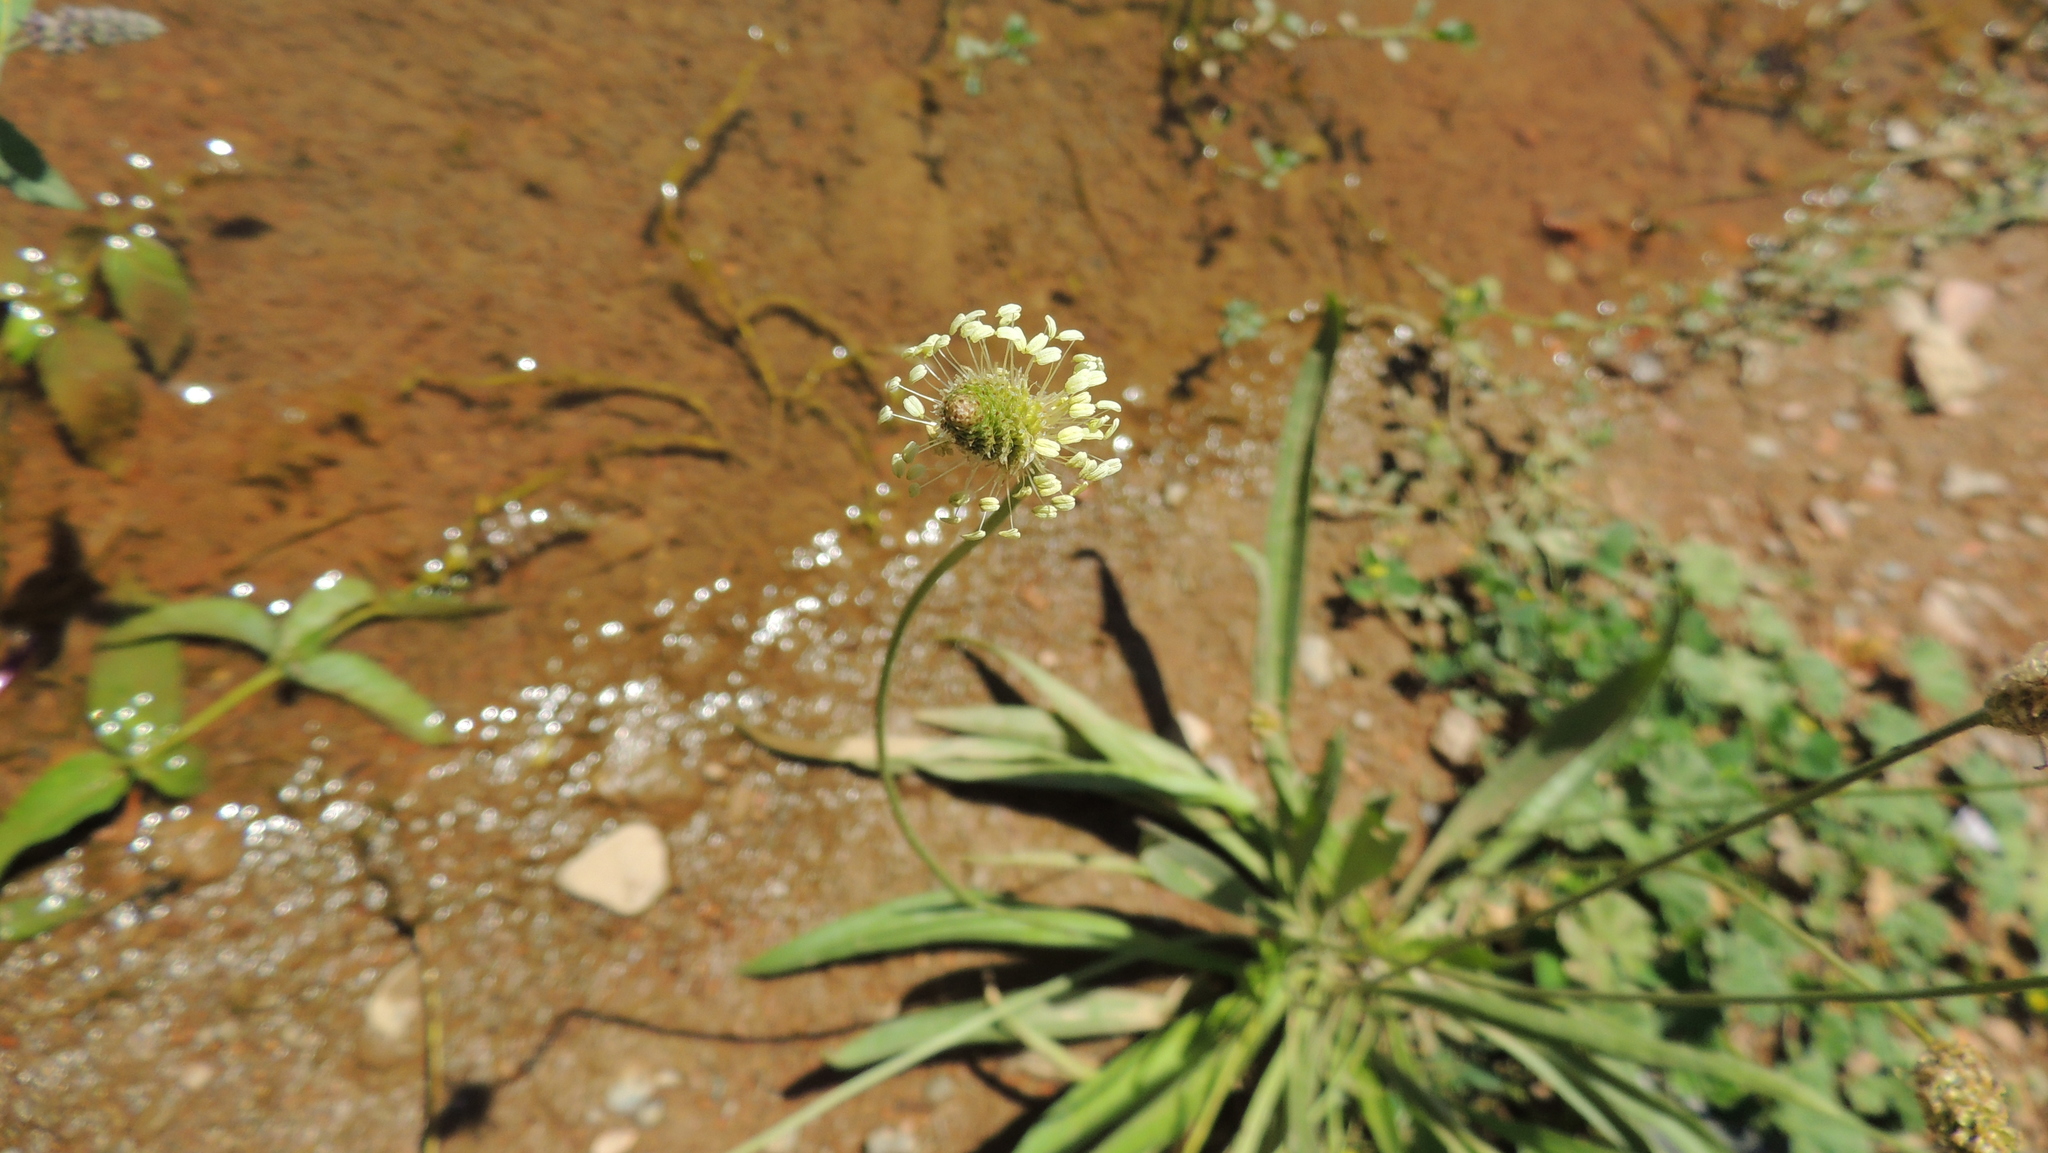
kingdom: Plantae
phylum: Tracheophyta
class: Magnoliopsida
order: Lamiales
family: Plantaginaceae
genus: Plantago
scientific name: Plantago lanceolata
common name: Ribwort plantain
